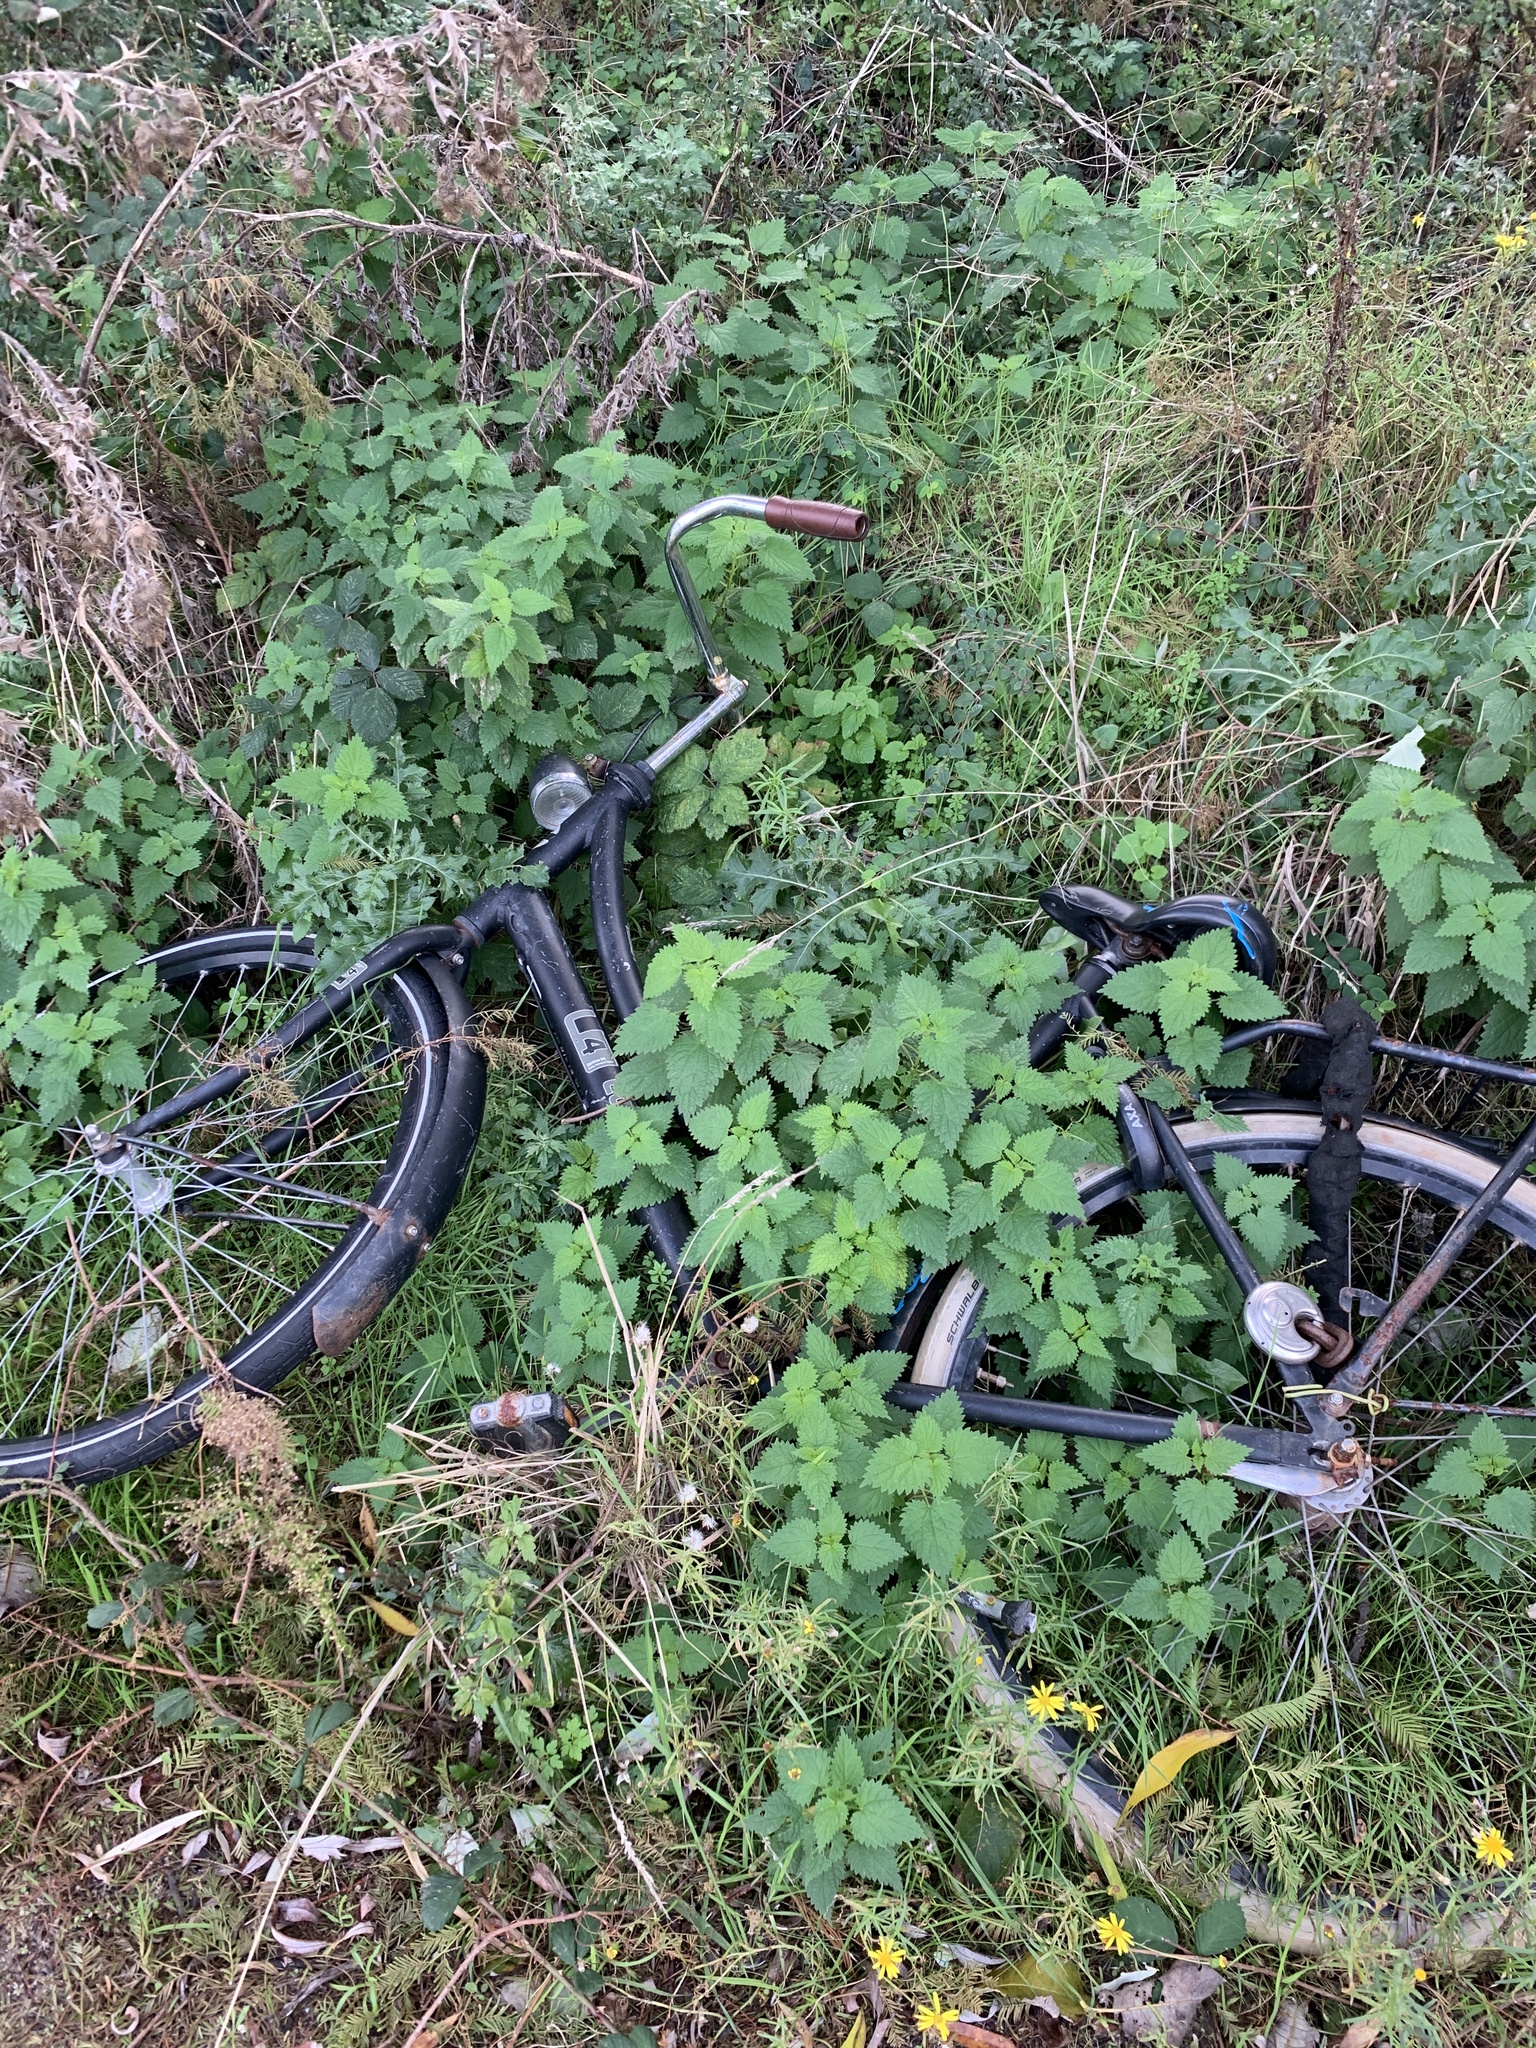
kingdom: Plantae
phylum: Tracheophyta
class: Magnoliopsida
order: Rosales
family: Urticaceae
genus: Urtica
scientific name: Urtica dioica
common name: Common nettle
